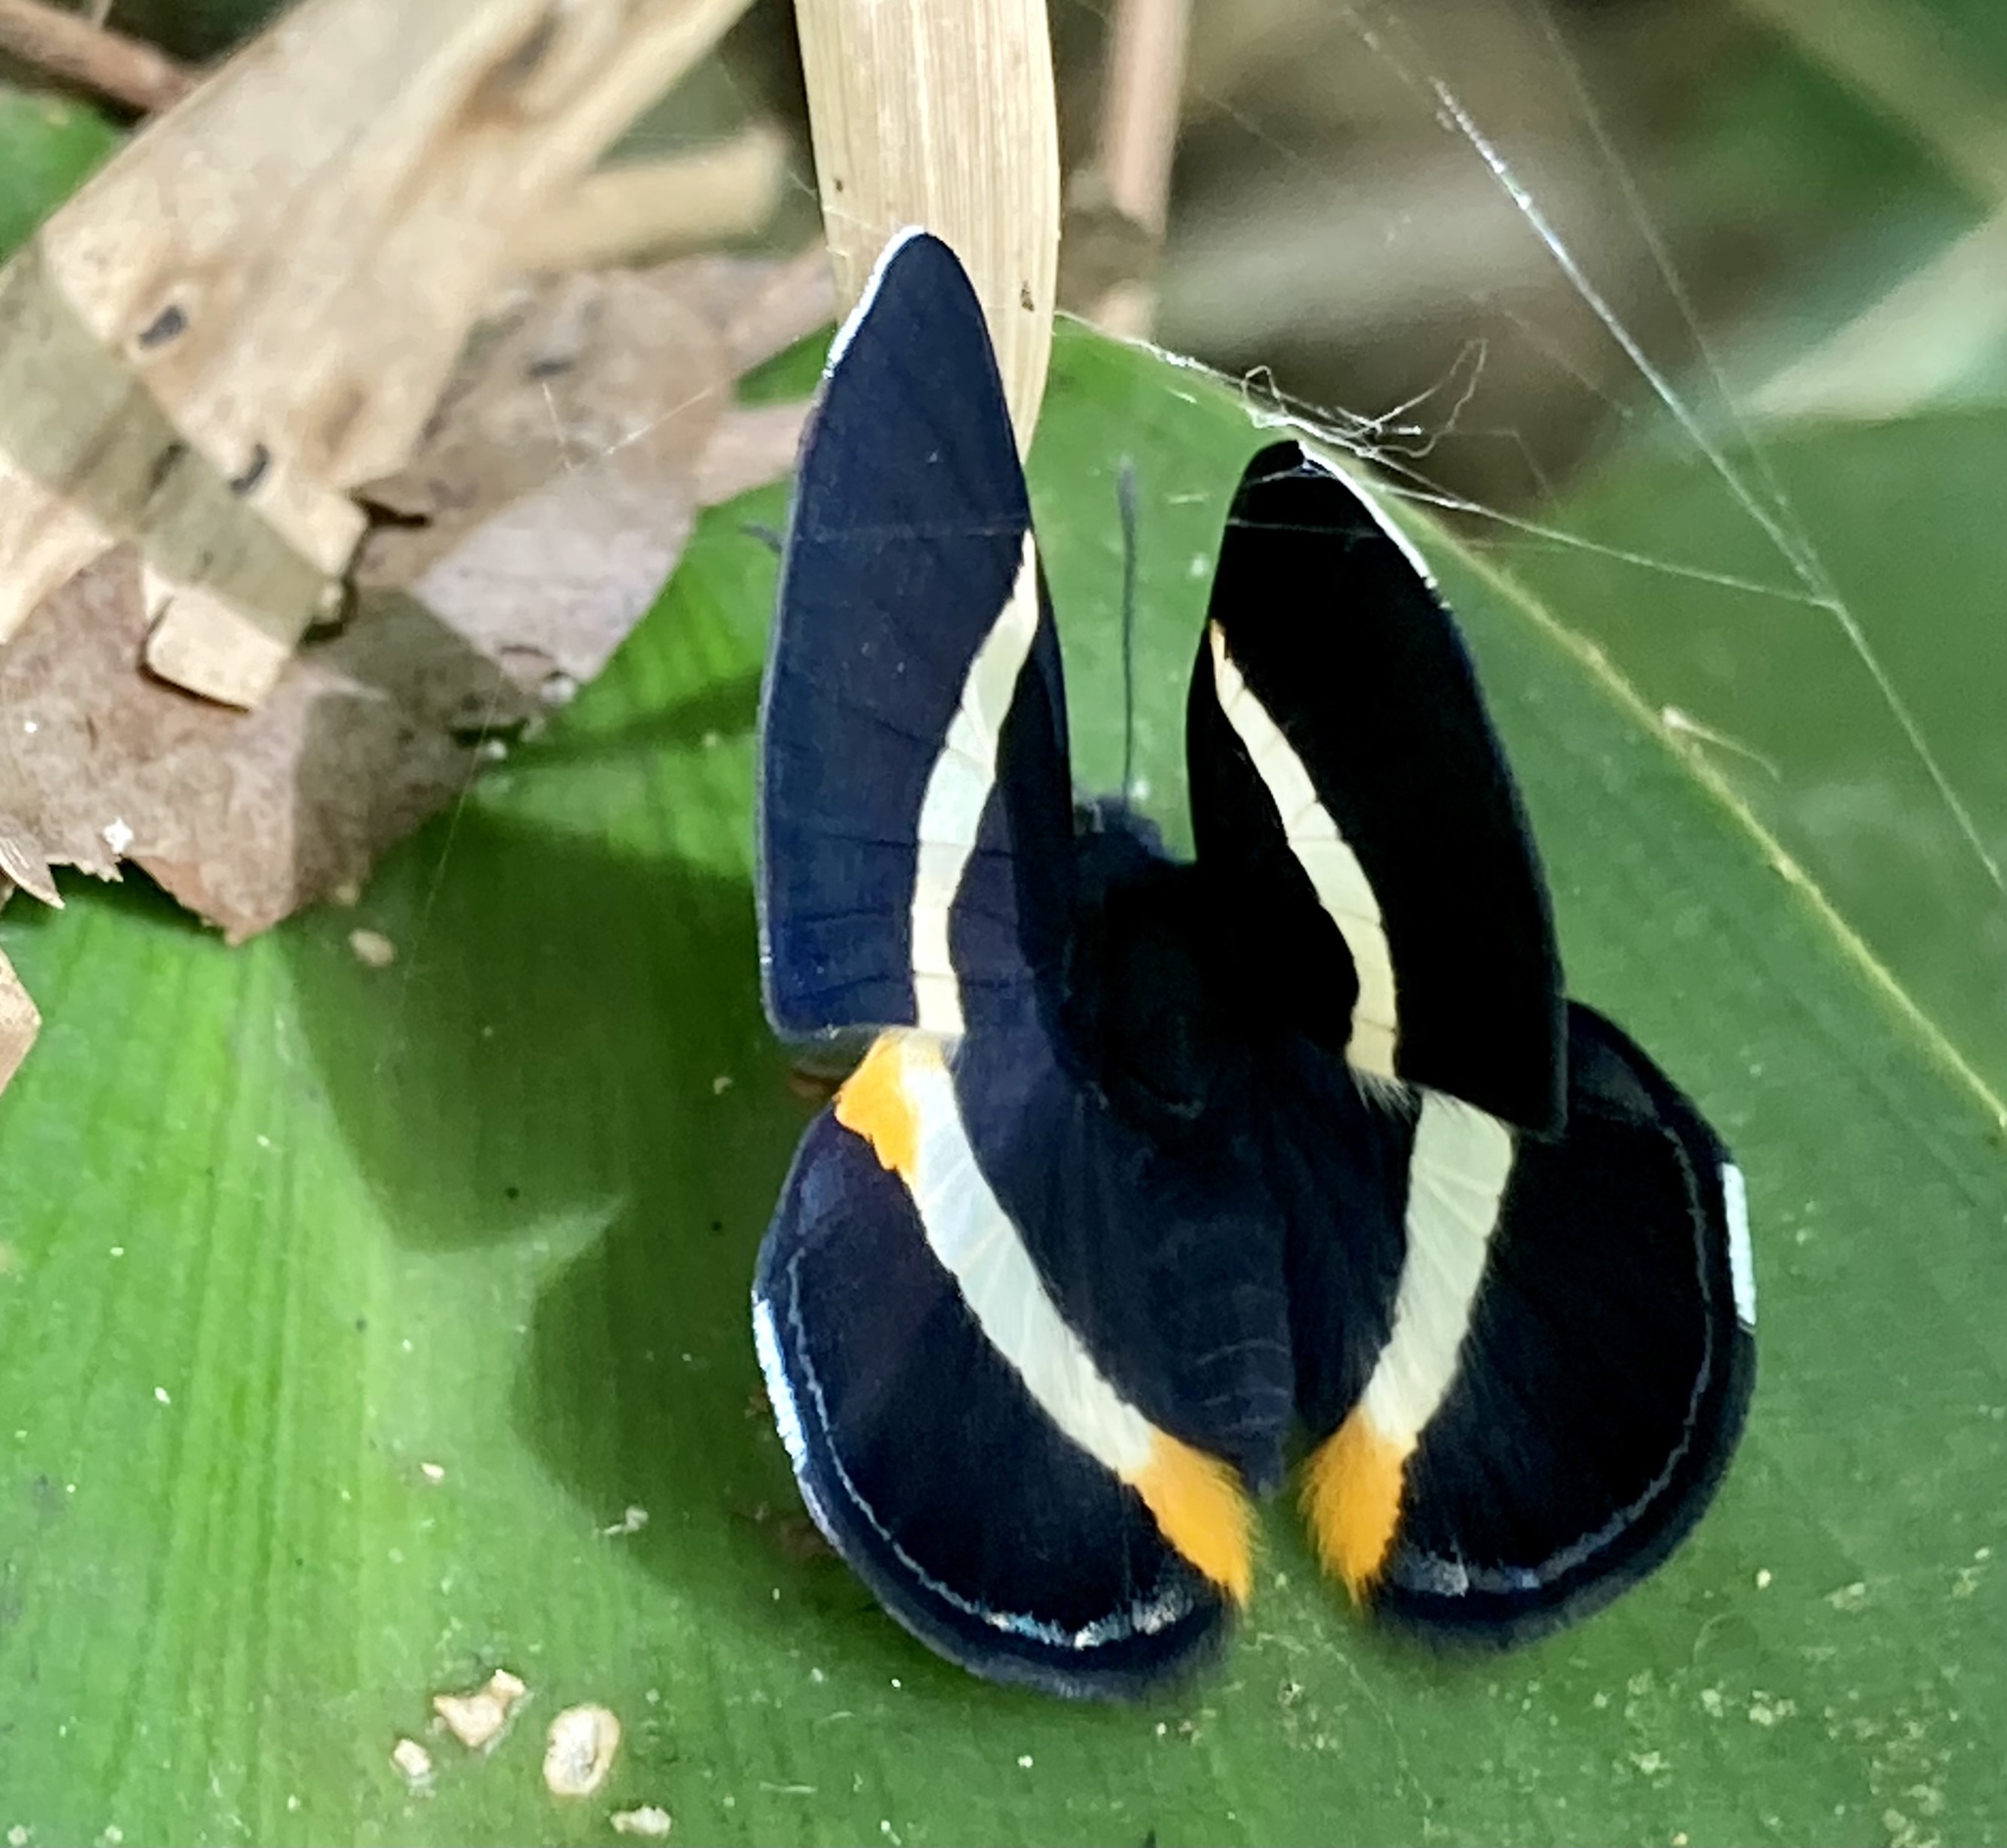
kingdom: Animalia
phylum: Arthropoda
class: Insecta
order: Lepidoptera
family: Riodinidae
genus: Notheme
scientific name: Notheme eumeus
